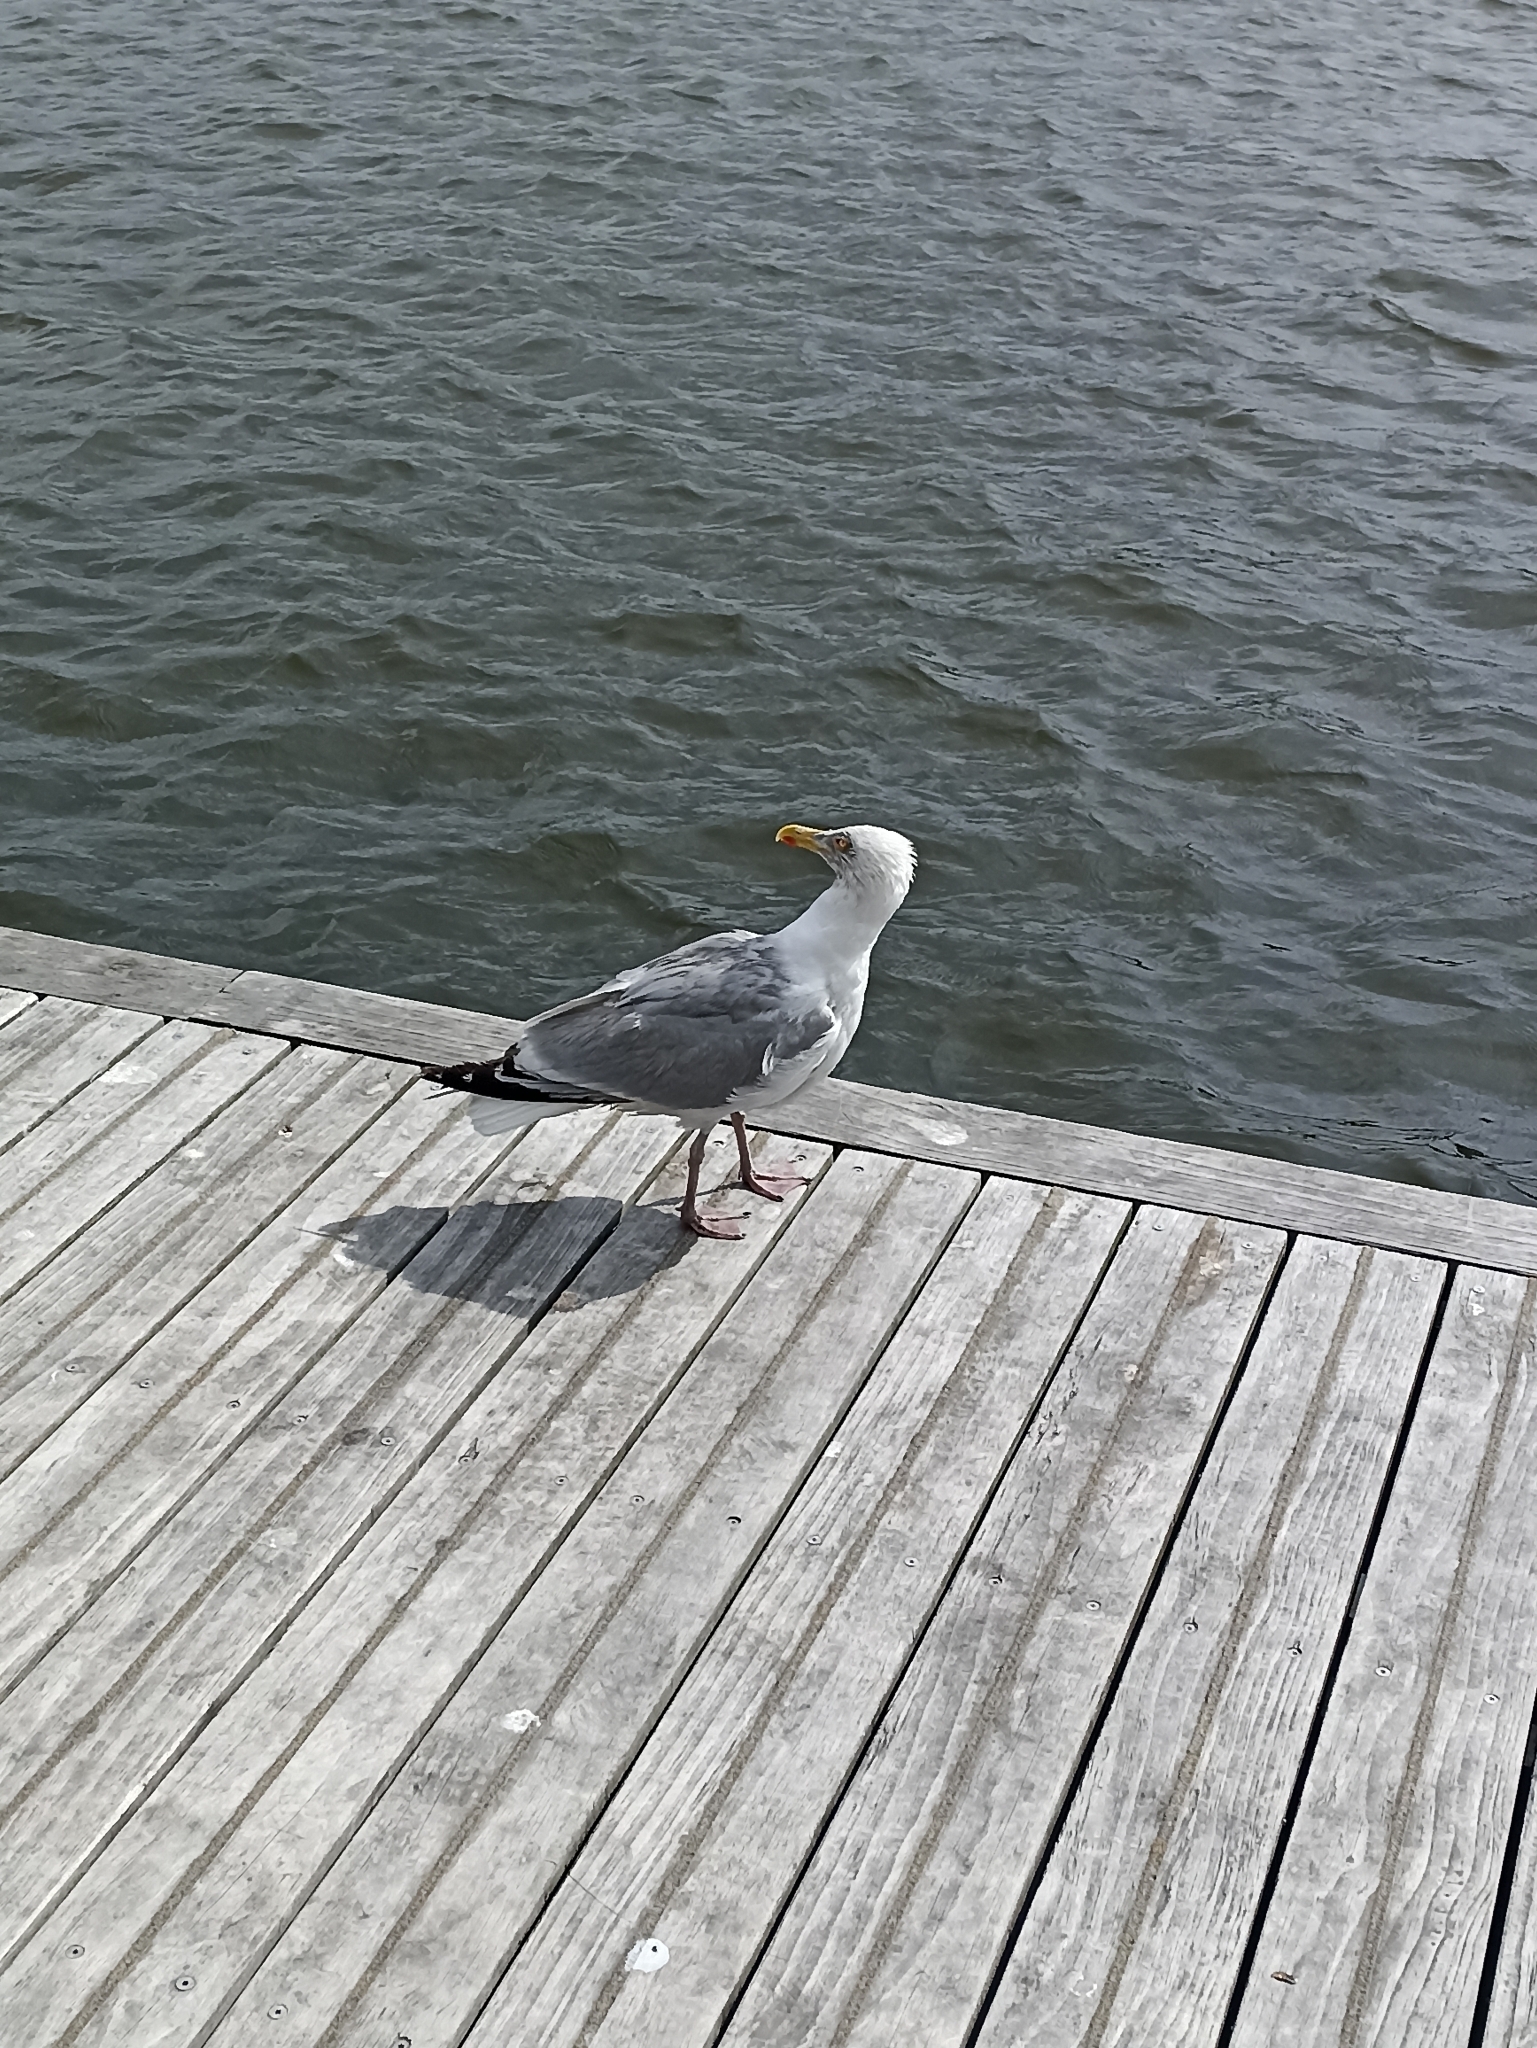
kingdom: Animalia
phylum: Chordata
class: Aves
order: Charadriiformes
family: Laridae
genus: Larus
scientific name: Larus argentatus
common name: Herring gull
